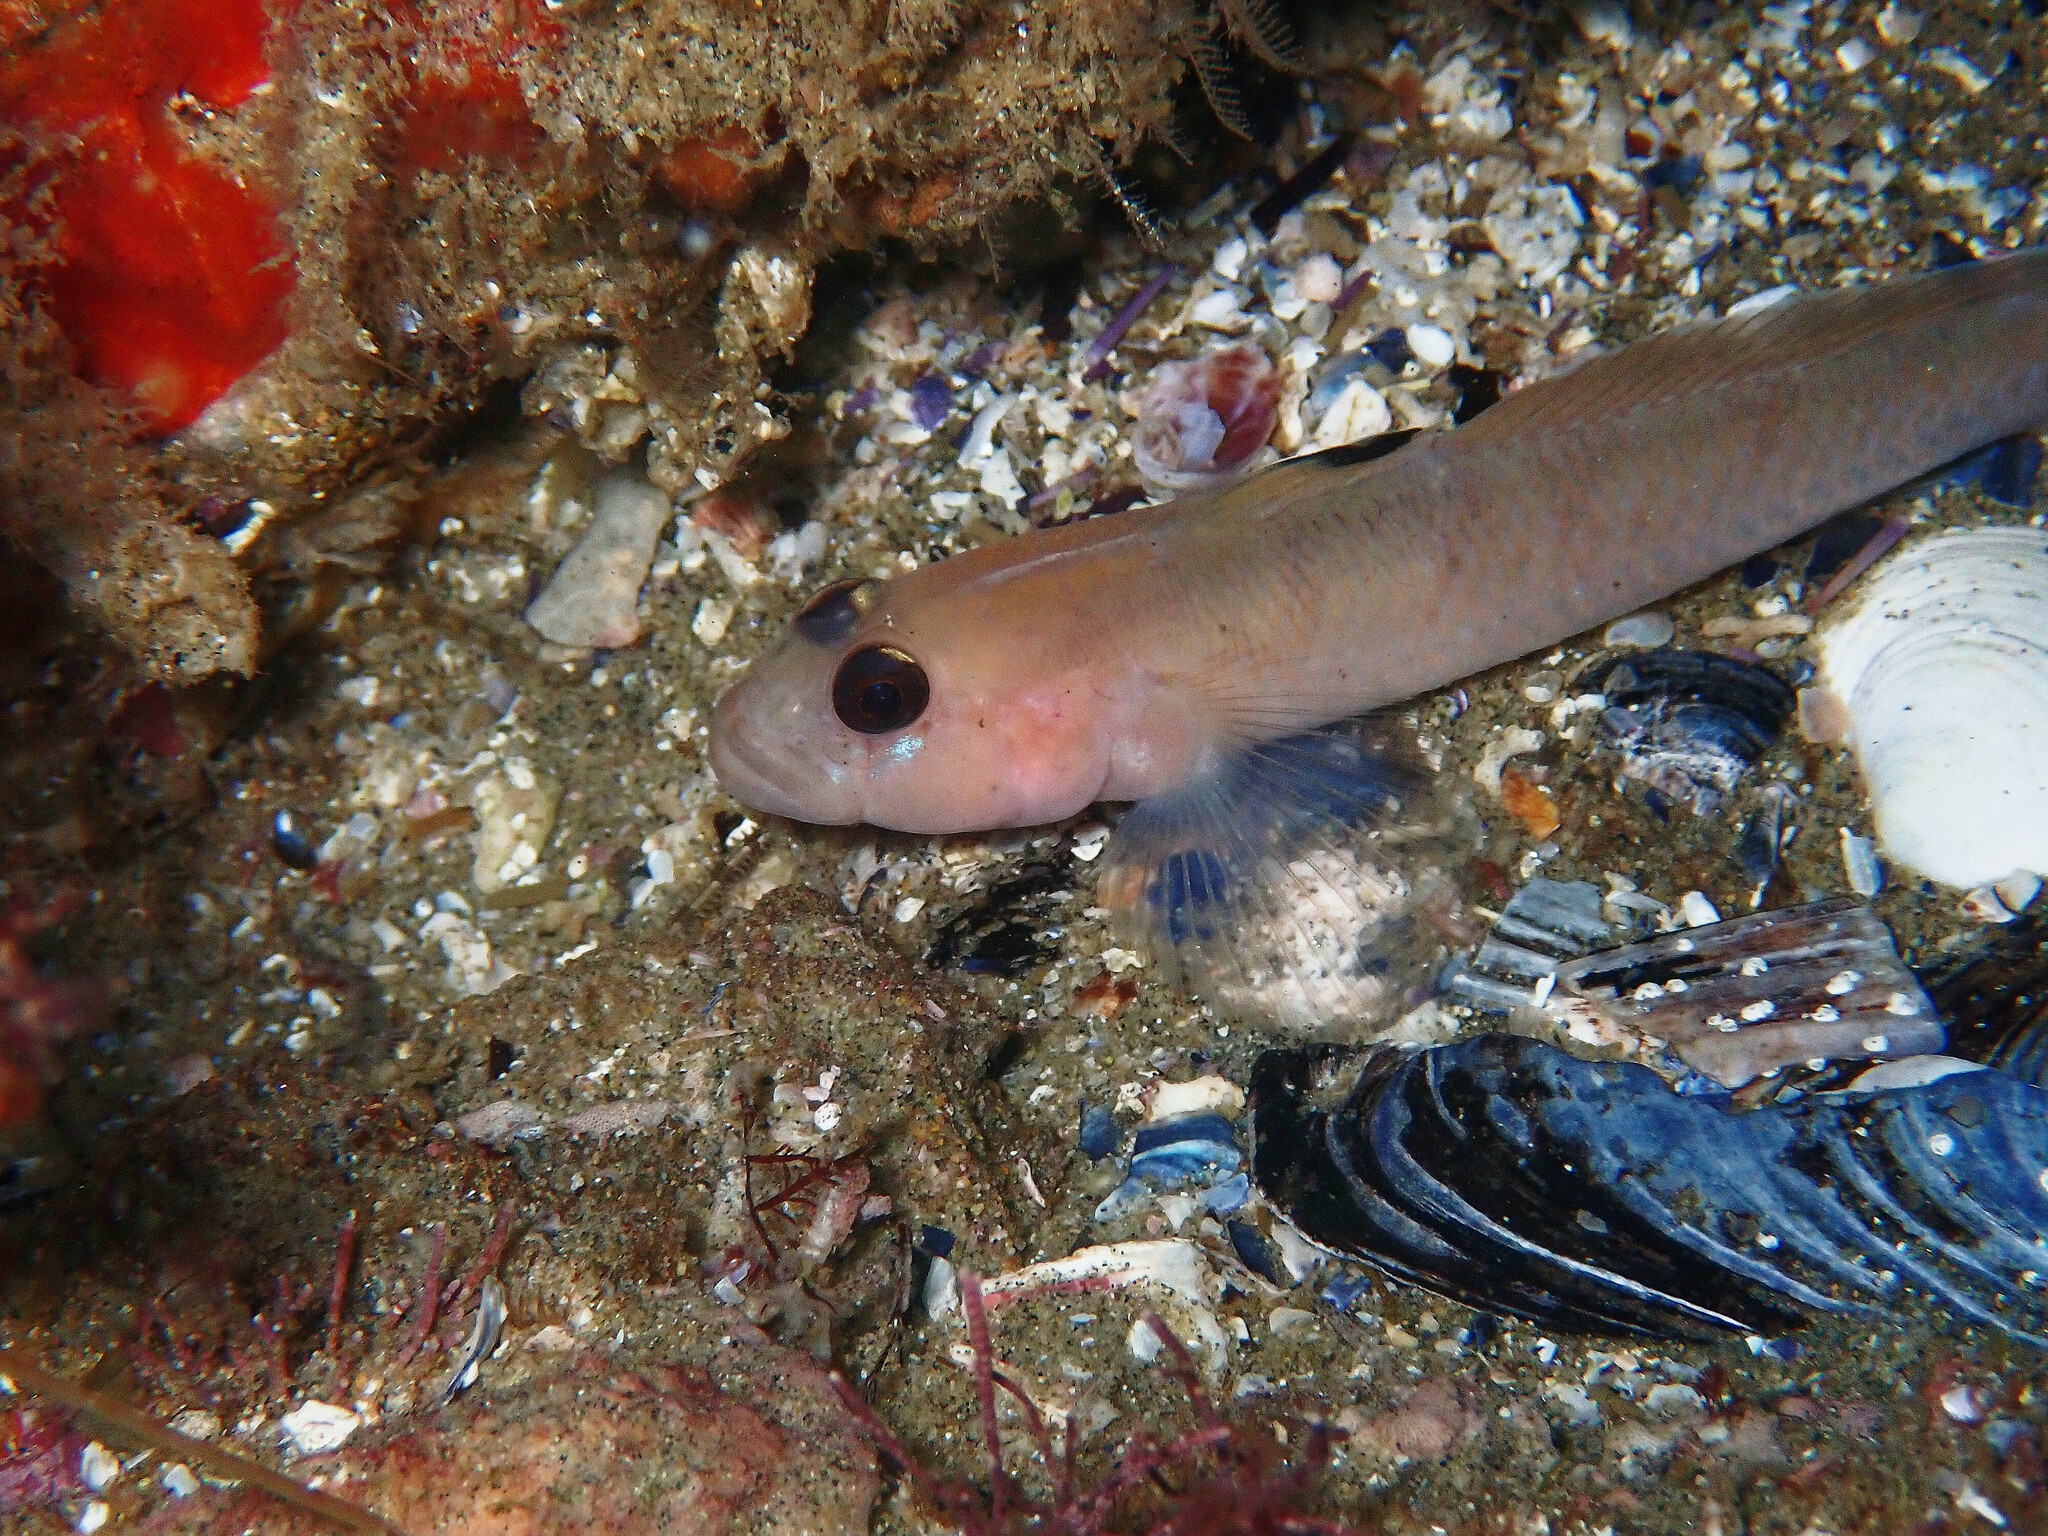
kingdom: Animalia
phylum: Chordata
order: Perciformes
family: Gobiidae
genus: Rhinogobiops
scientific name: Rhinogobiops nicholsii
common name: Blackeye goby
